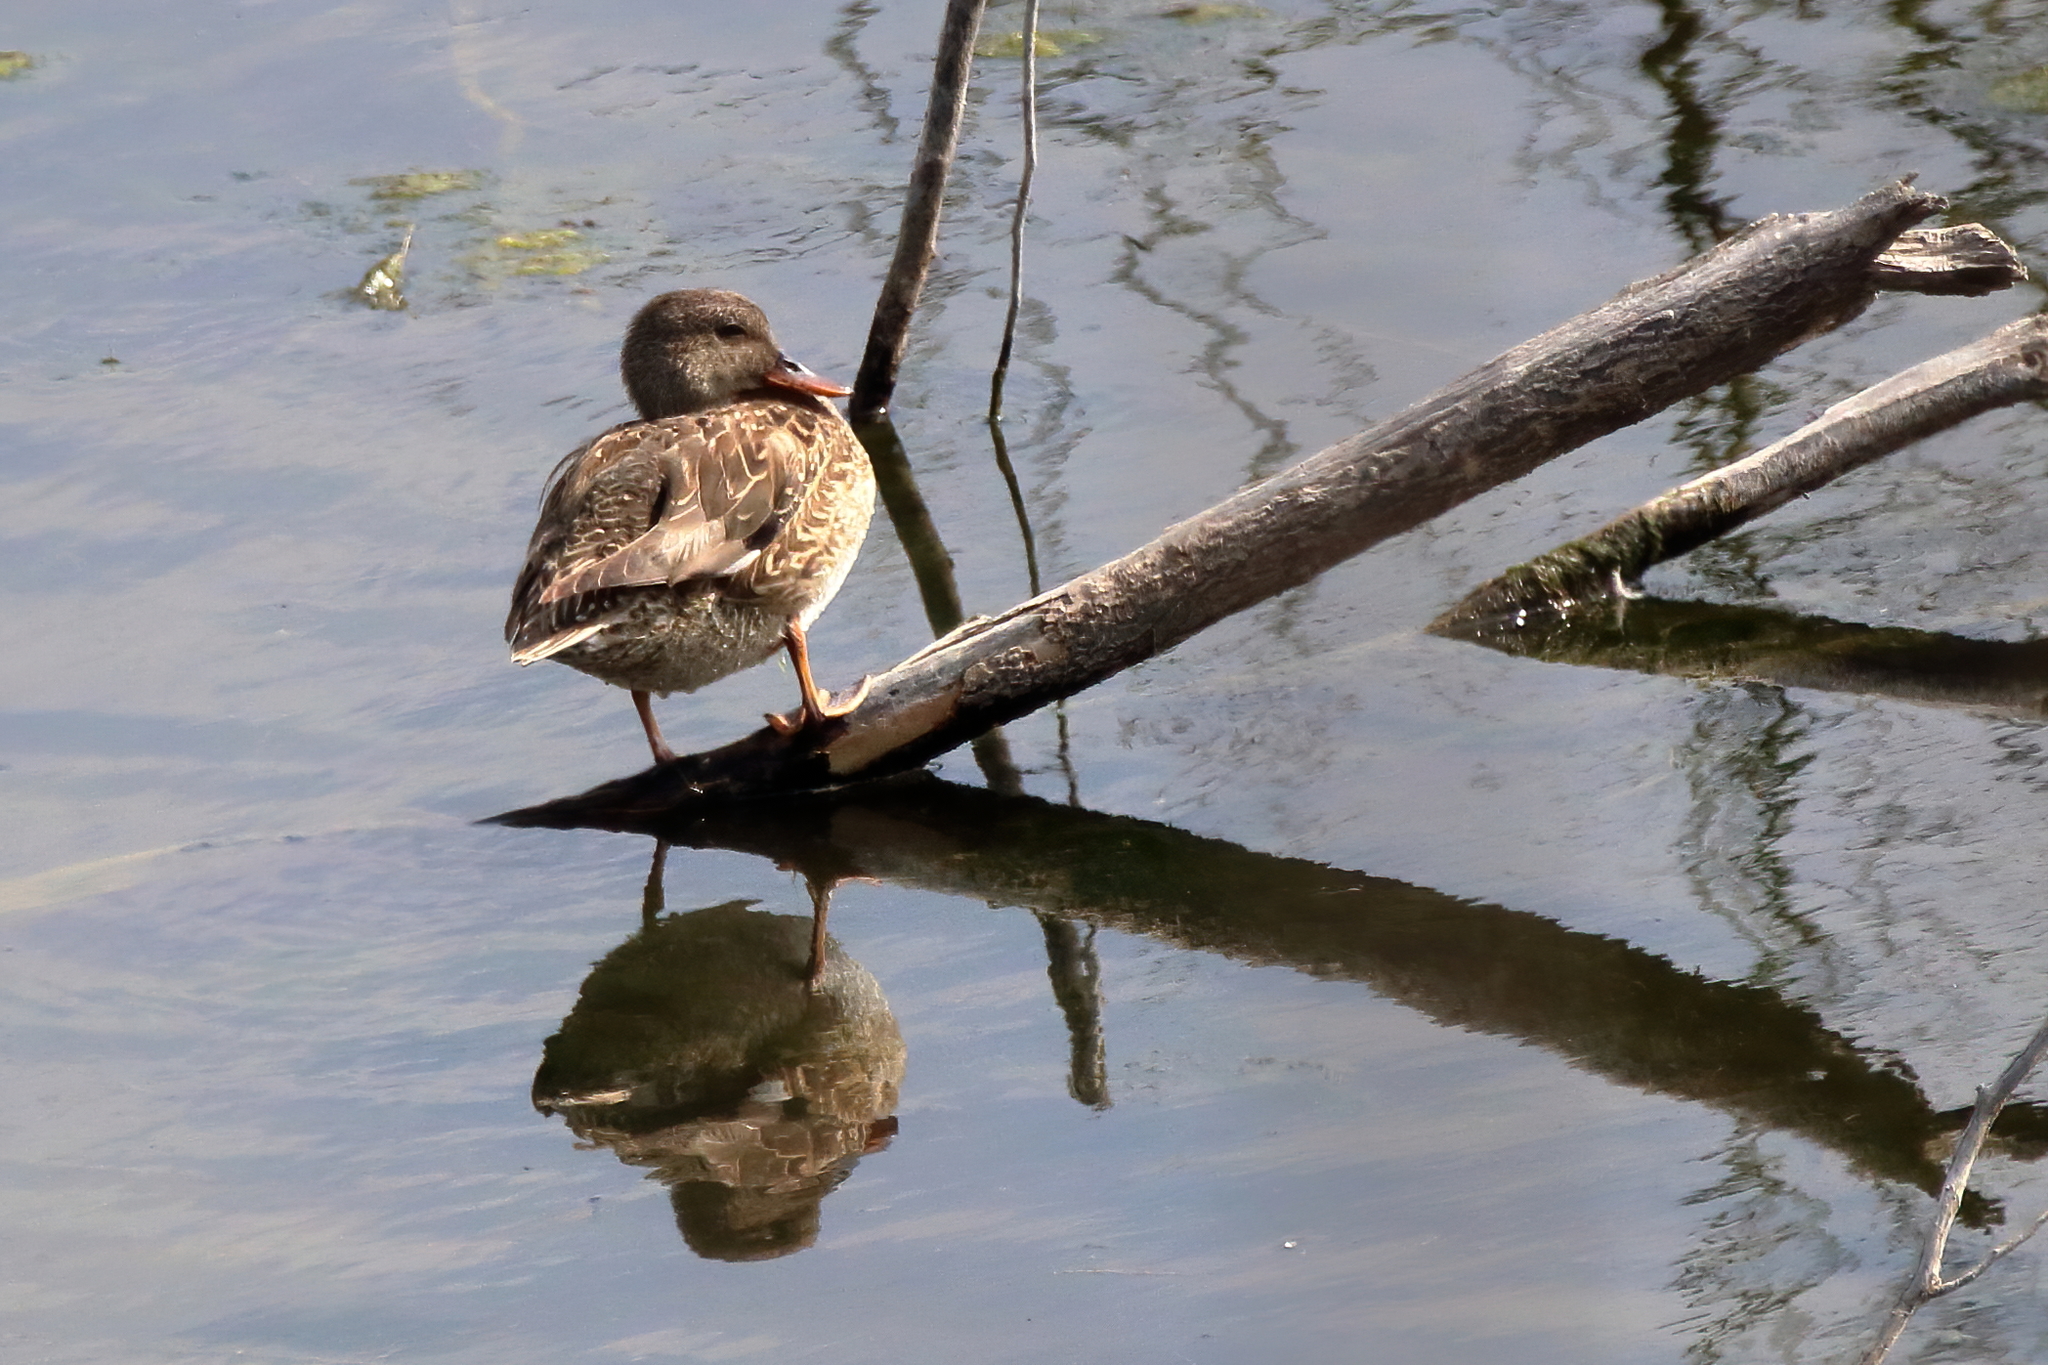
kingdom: Animalia
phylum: Chordata
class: Aves
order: Anseriformes
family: Anatidae
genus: Mareca
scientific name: Mareca strepera
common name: Gadwall
